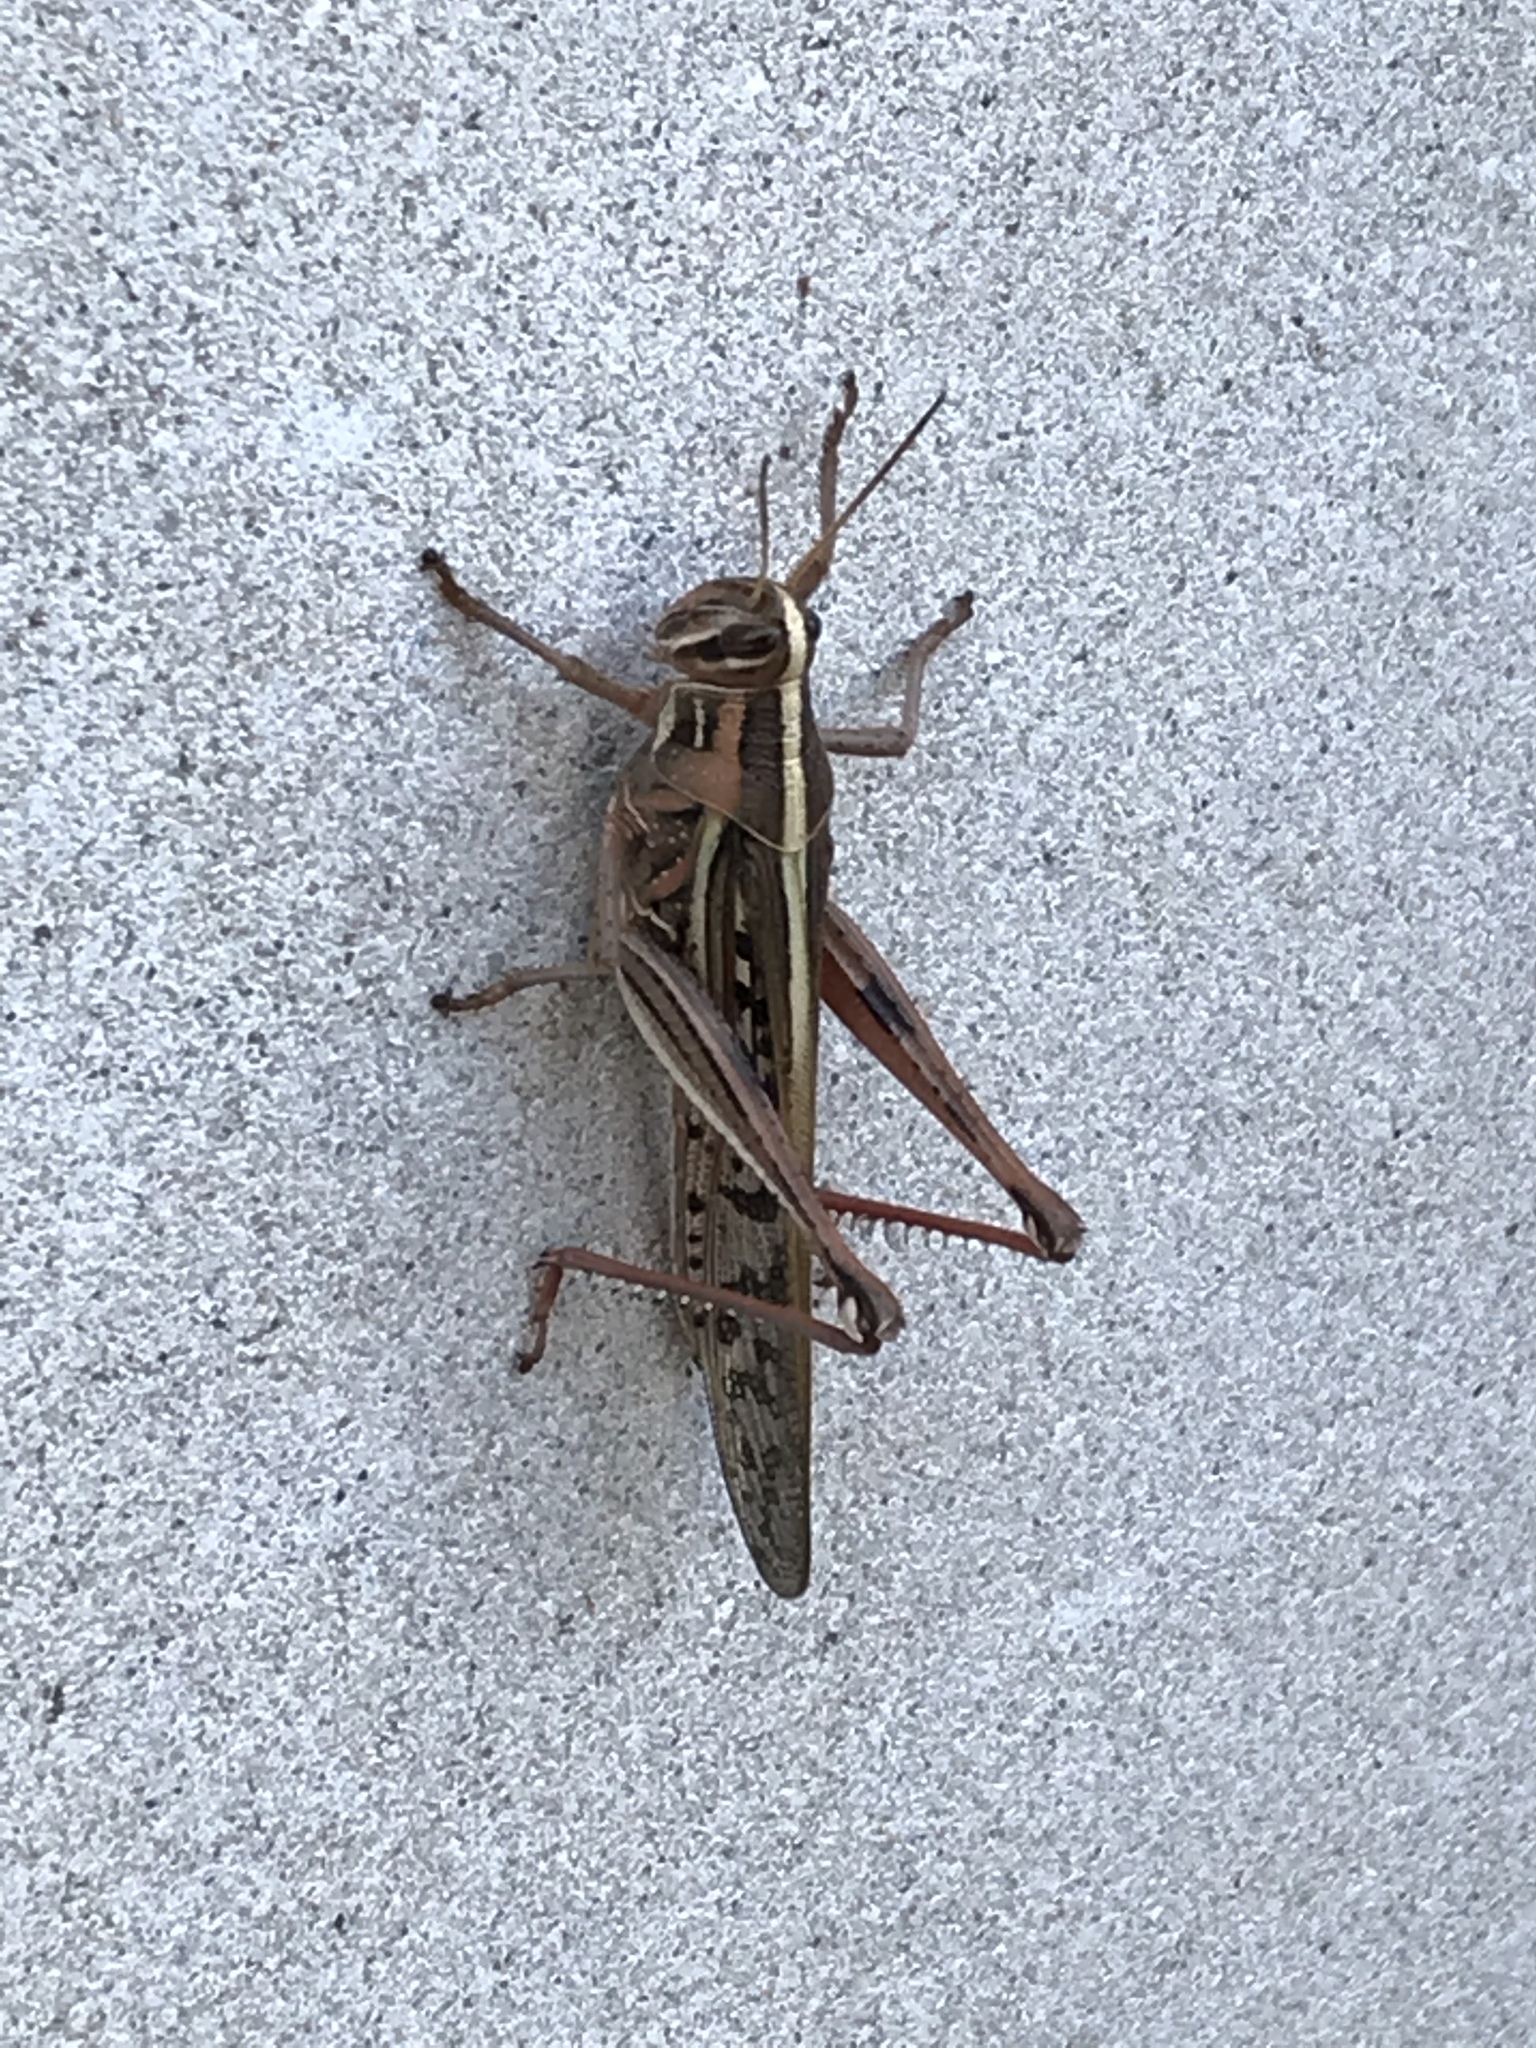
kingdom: Animalia
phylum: Arthropoda
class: Insecta
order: Orthoptera
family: Acrididae
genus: Schistocerca
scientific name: Schistocerca americana
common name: American bird locust
